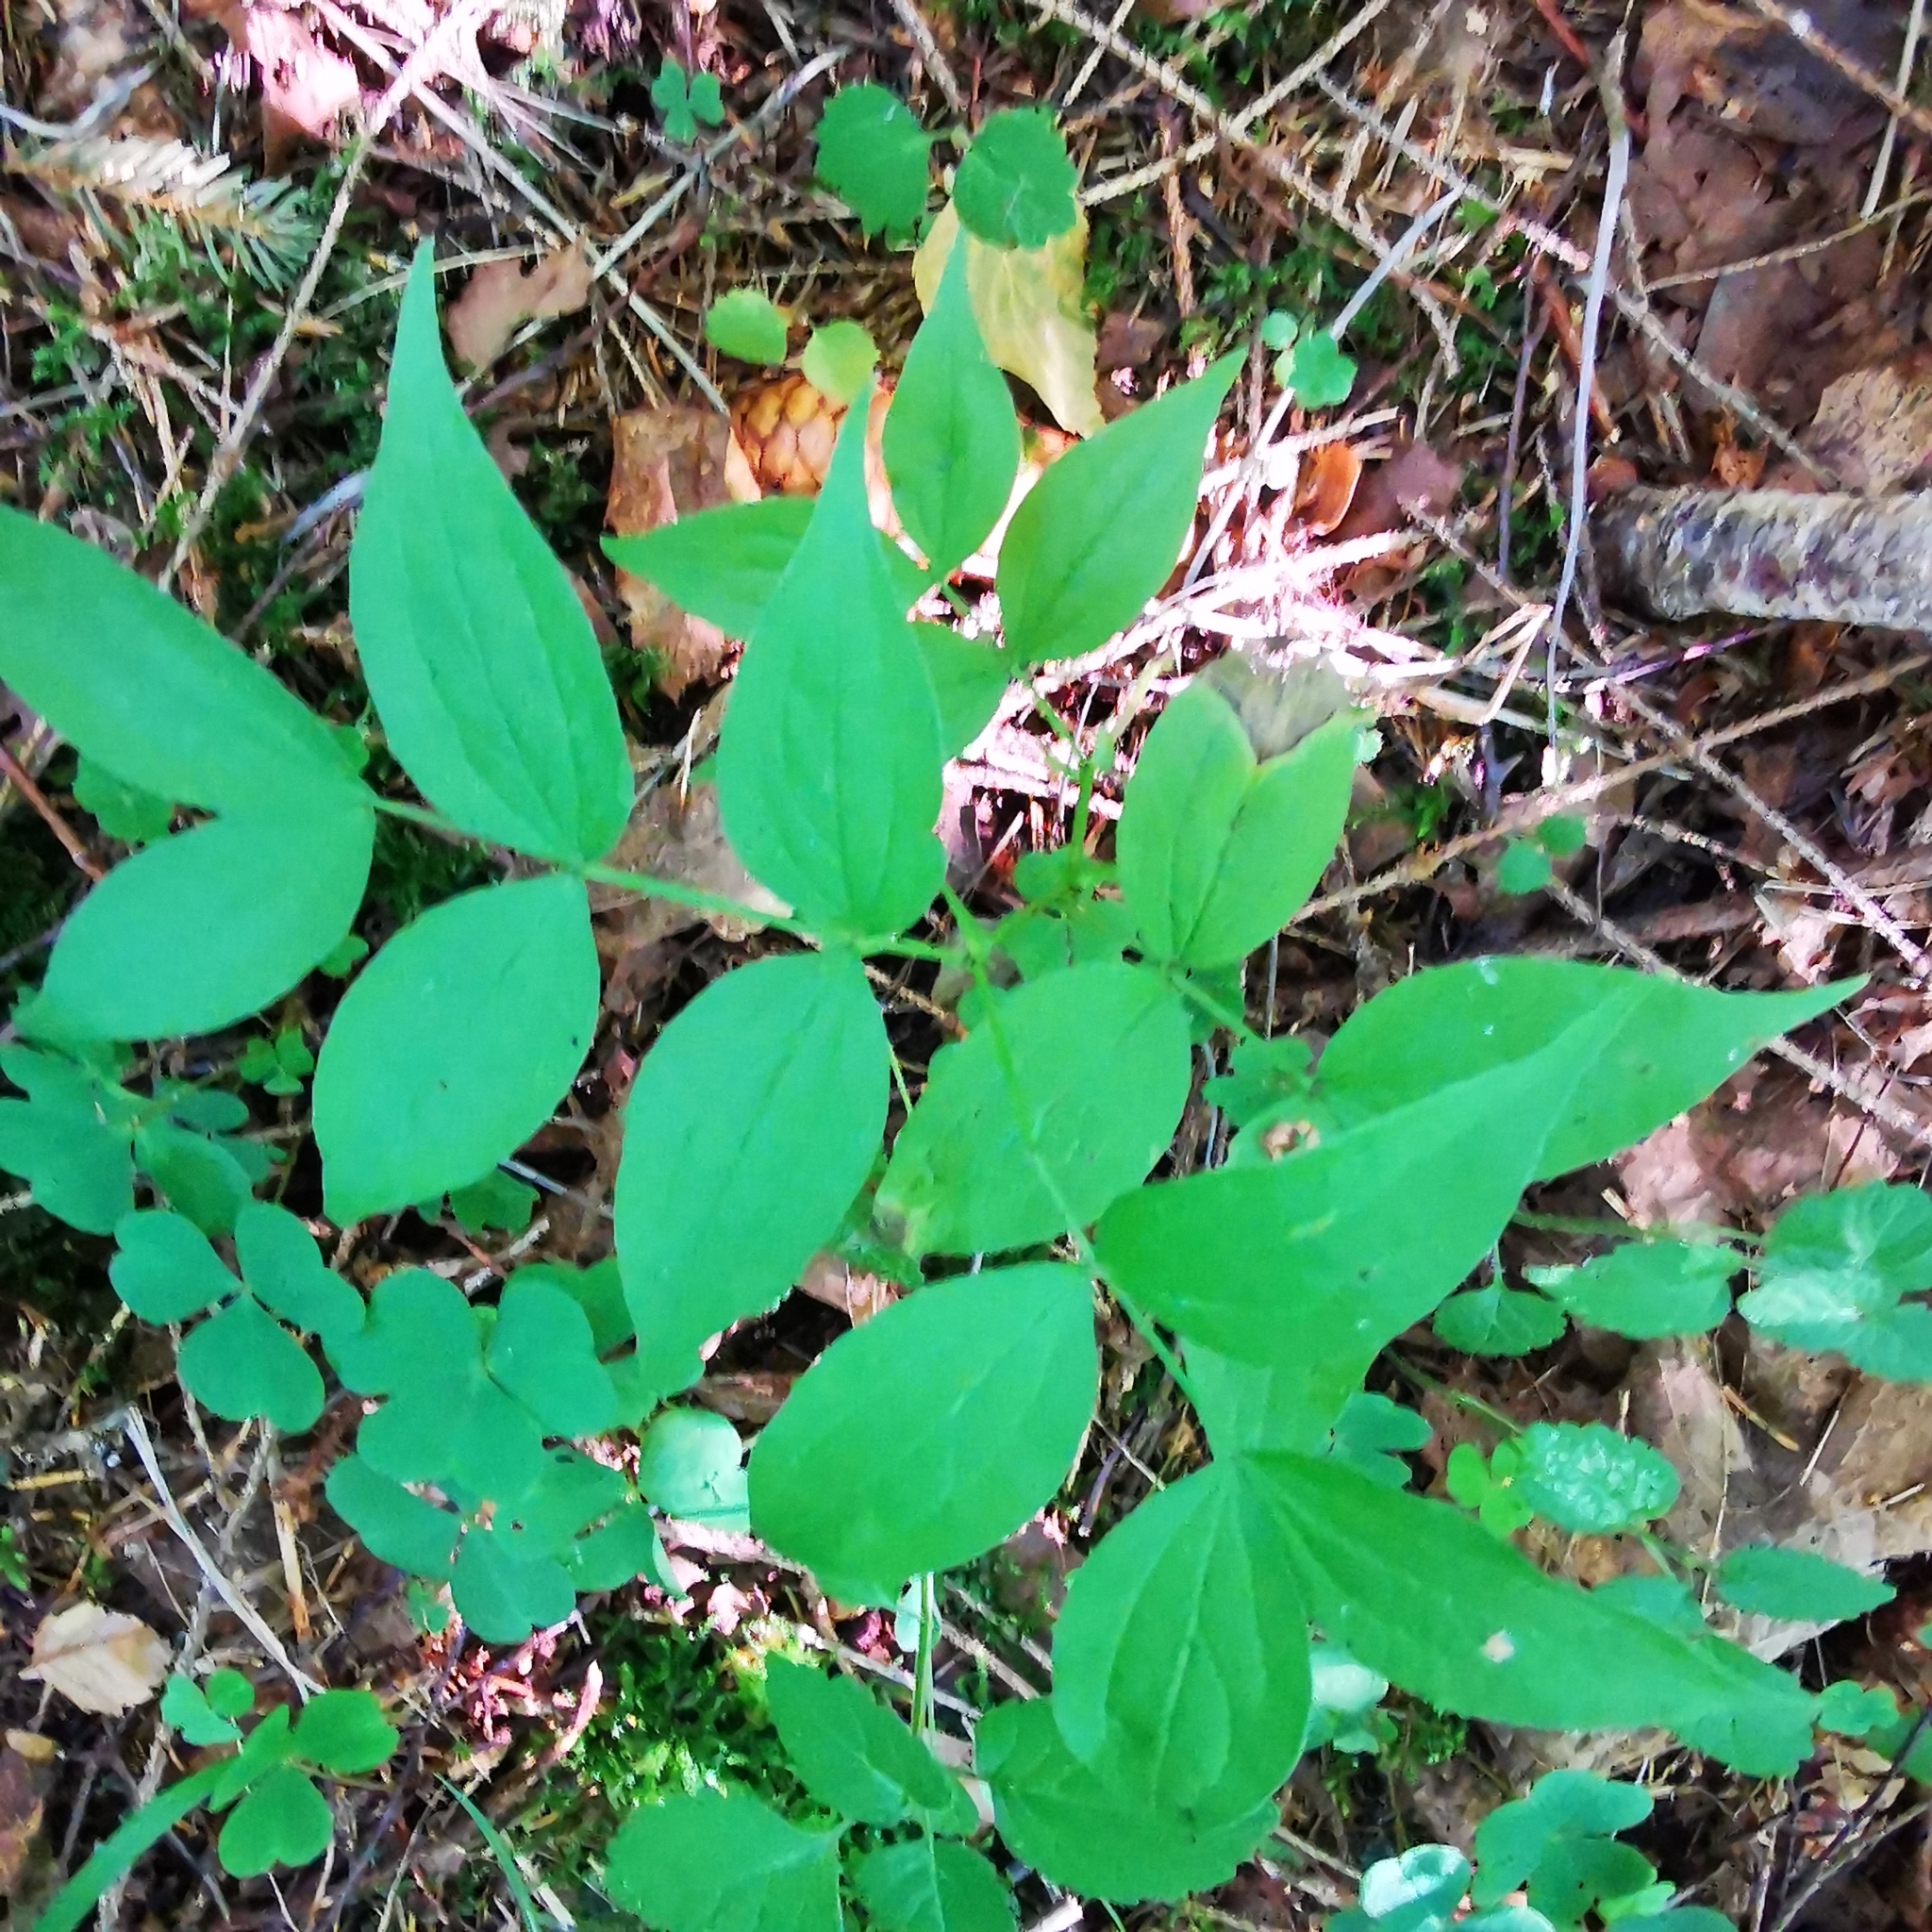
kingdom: Plantae
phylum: Tracheophyta
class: Magnoliopsida
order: Fabales
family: Fabaceae
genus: Lathyrus
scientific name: Lathyrus vernus
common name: Spring pea
